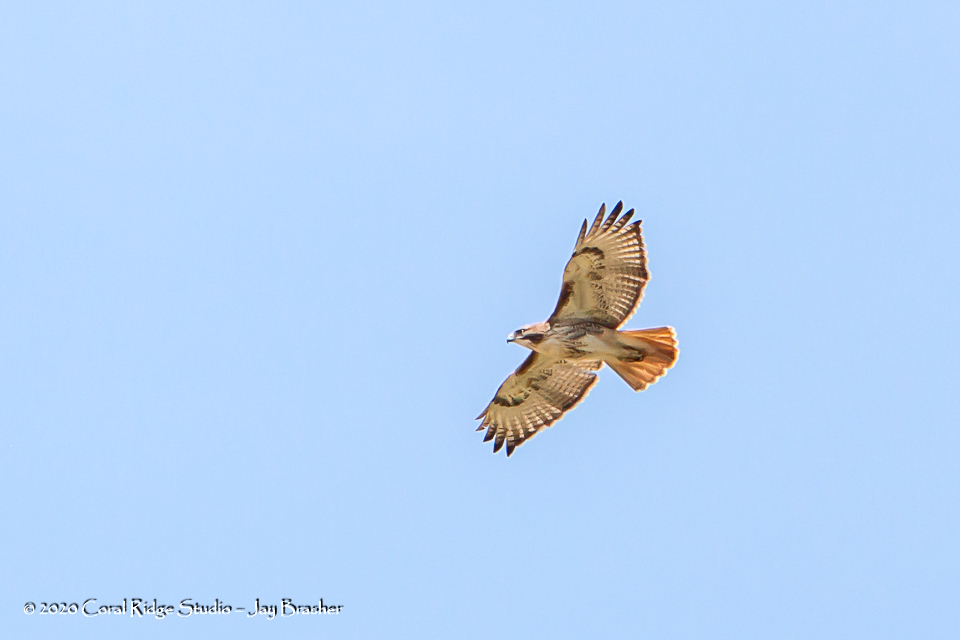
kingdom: Animalia
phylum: Chordata
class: Aves
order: Accipitriformes
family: Accipitridae
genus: Buteo
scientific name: Buteo jamaicensis
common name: Red-tailed hawk
